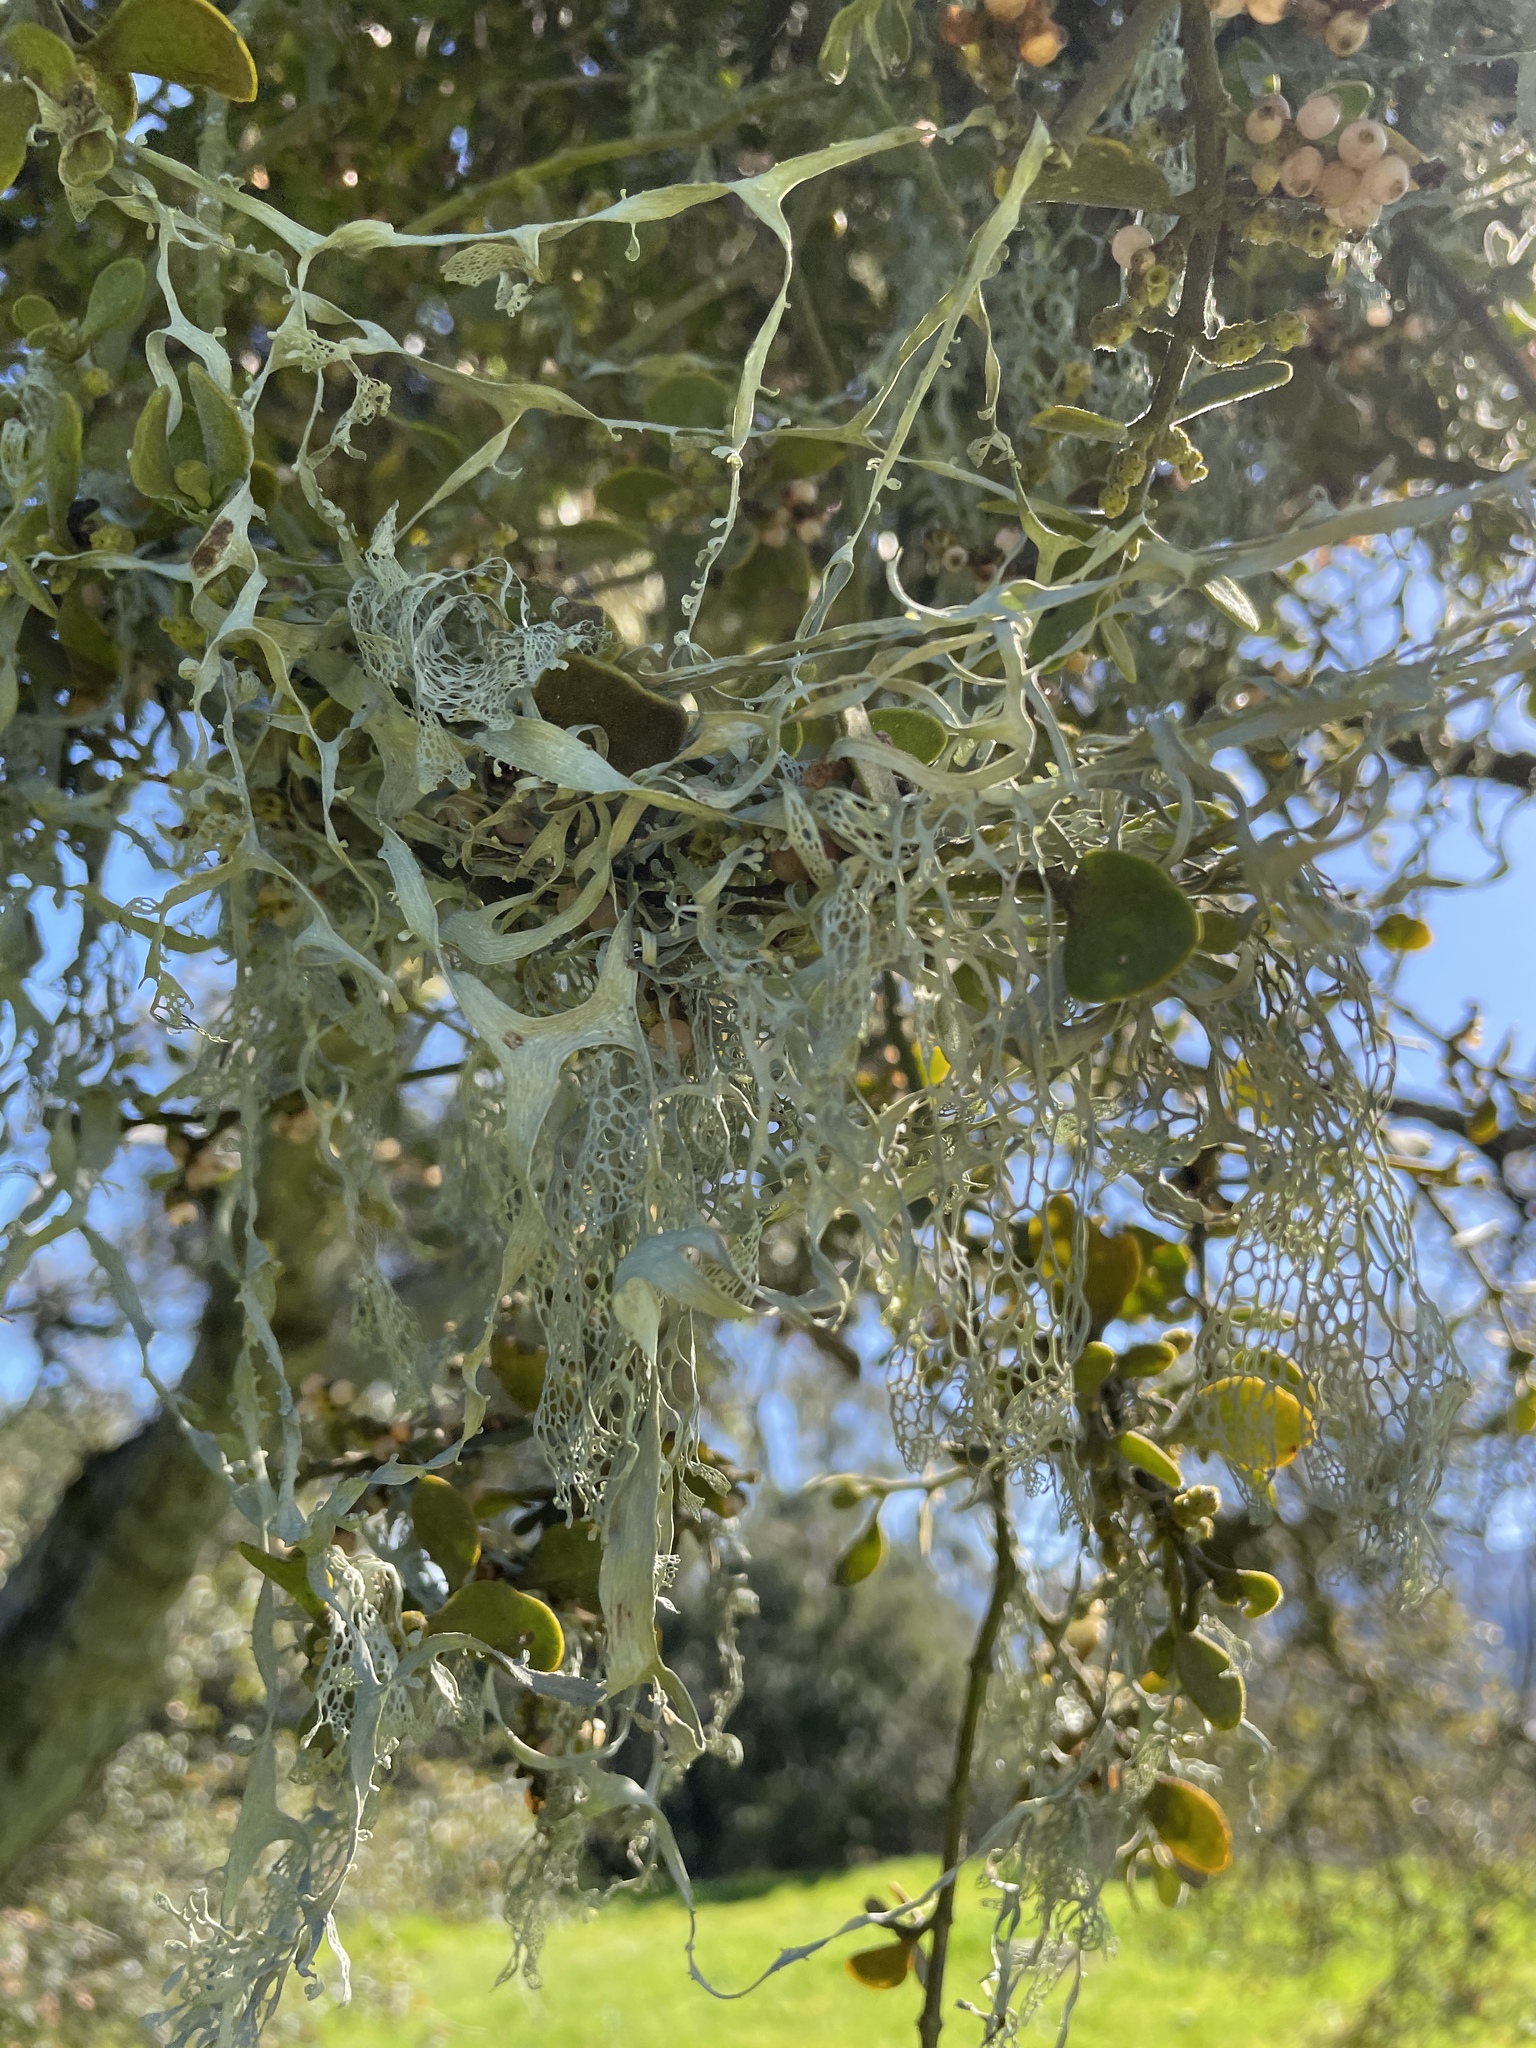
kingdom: Fungi
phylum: Ascomycota
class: Lecanoromycetes
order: Lecanorales
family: Ramalinaceae
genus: Ramalina
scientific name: Ramalina menziesii
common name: Lace lichen
